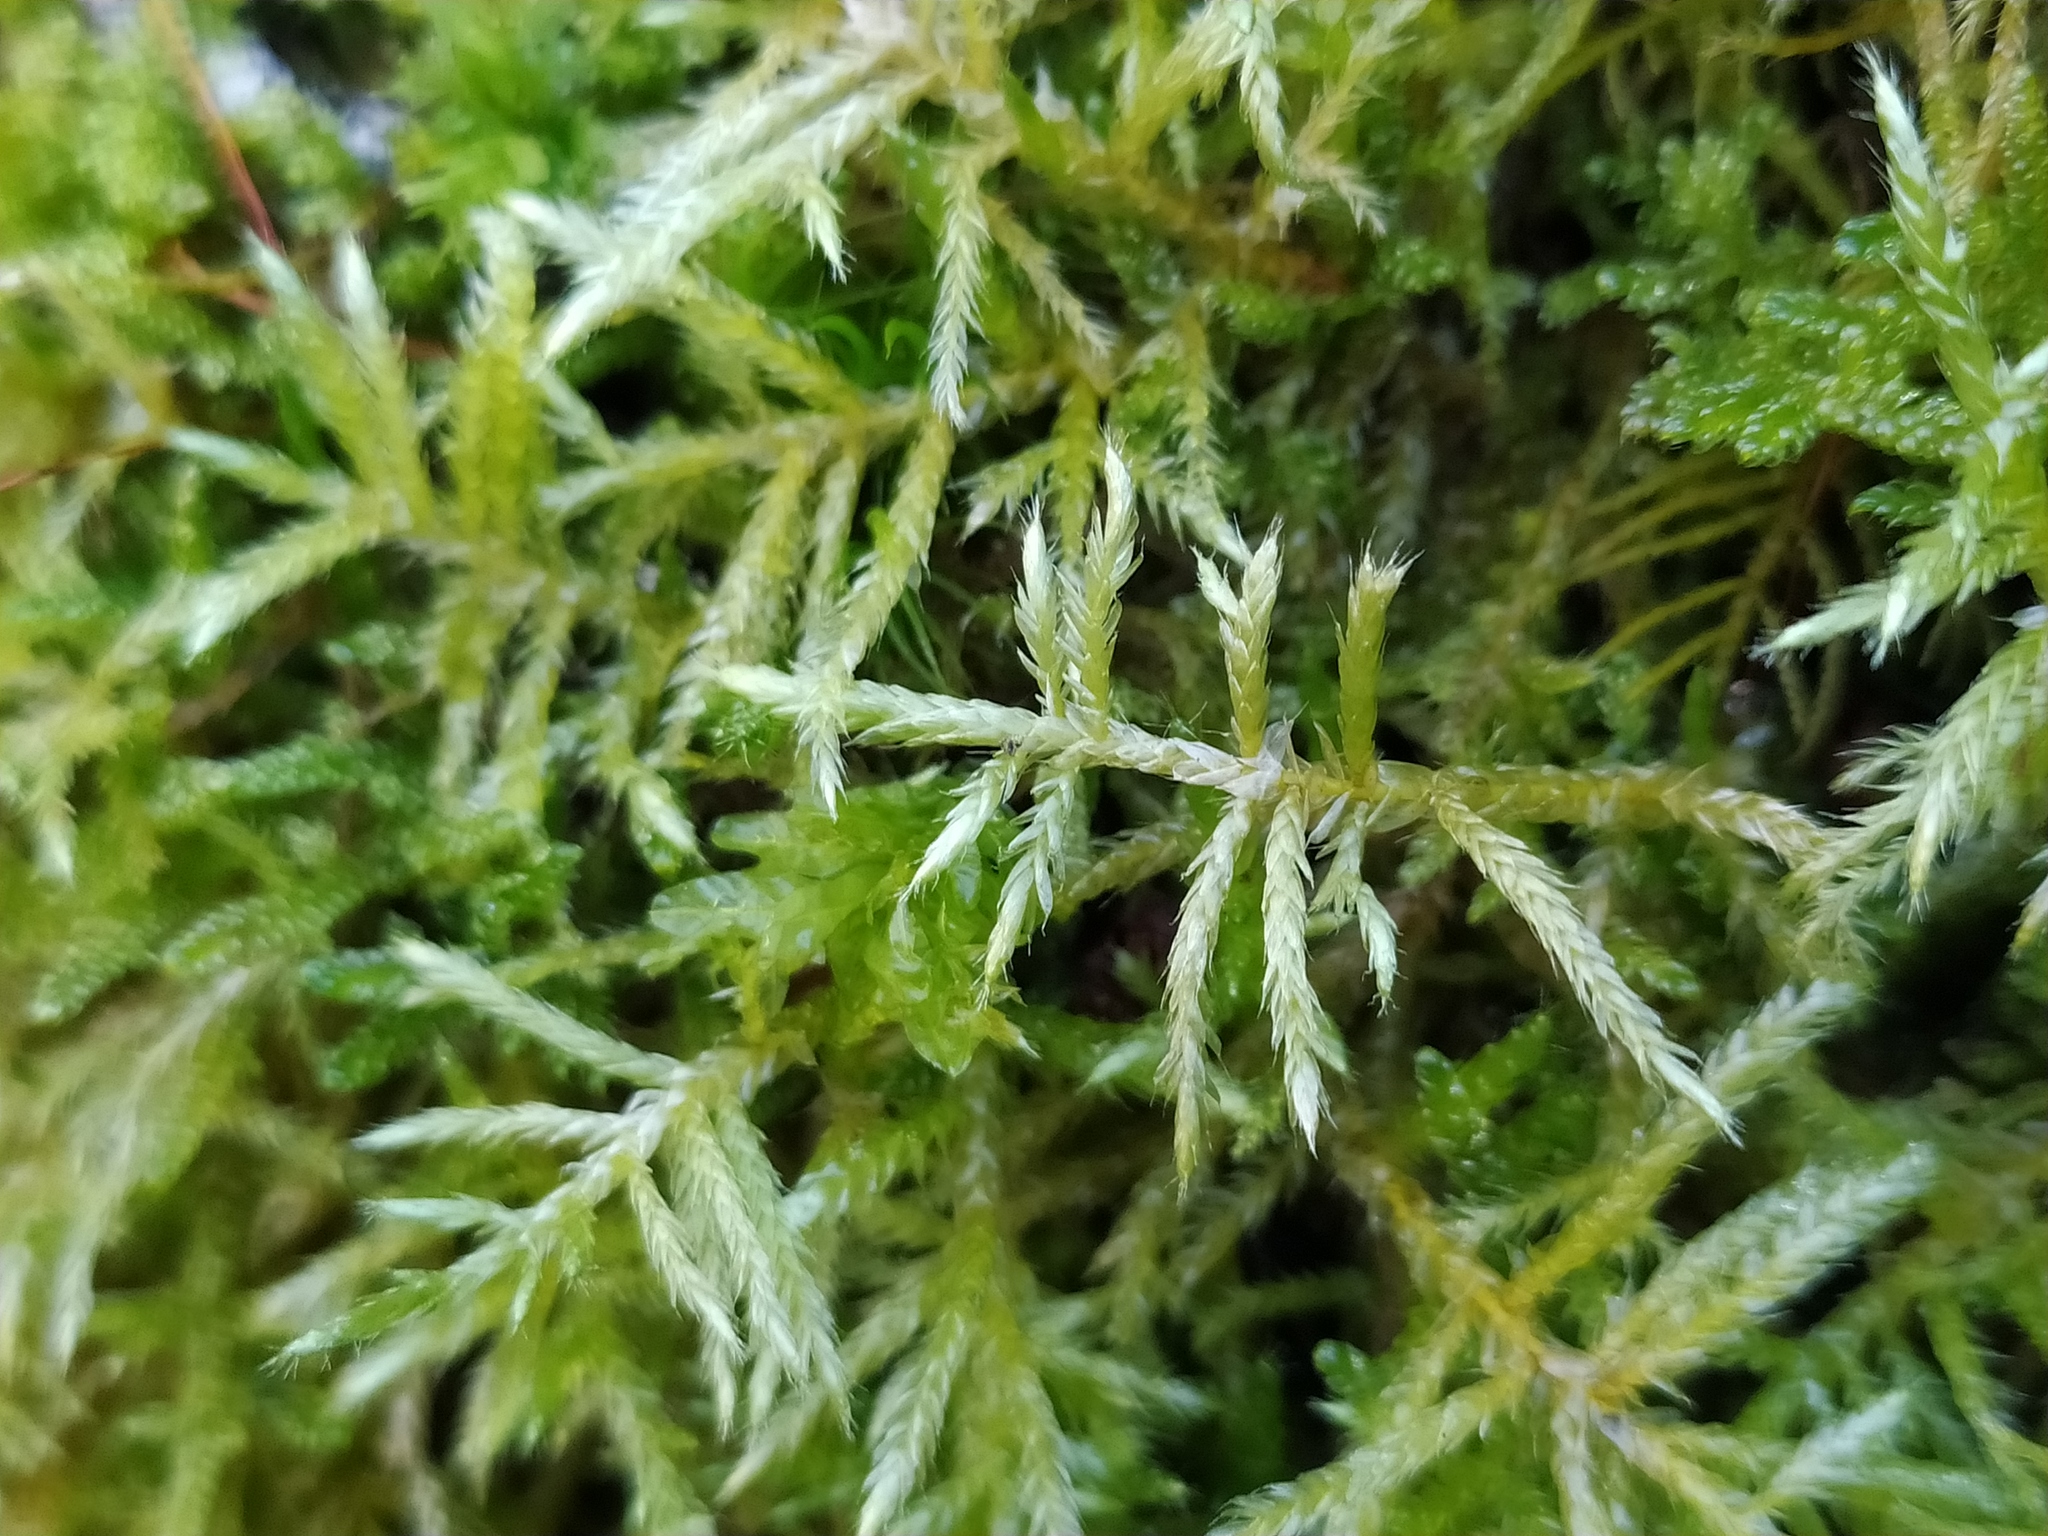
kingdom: Plantae
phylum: Bryophyta
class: Bryopsida
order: Hypnales
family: Brachytheciaceae
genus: Cirriphyllum
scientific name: Cirriphyllum piliferum
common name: Hair-pointed moss
